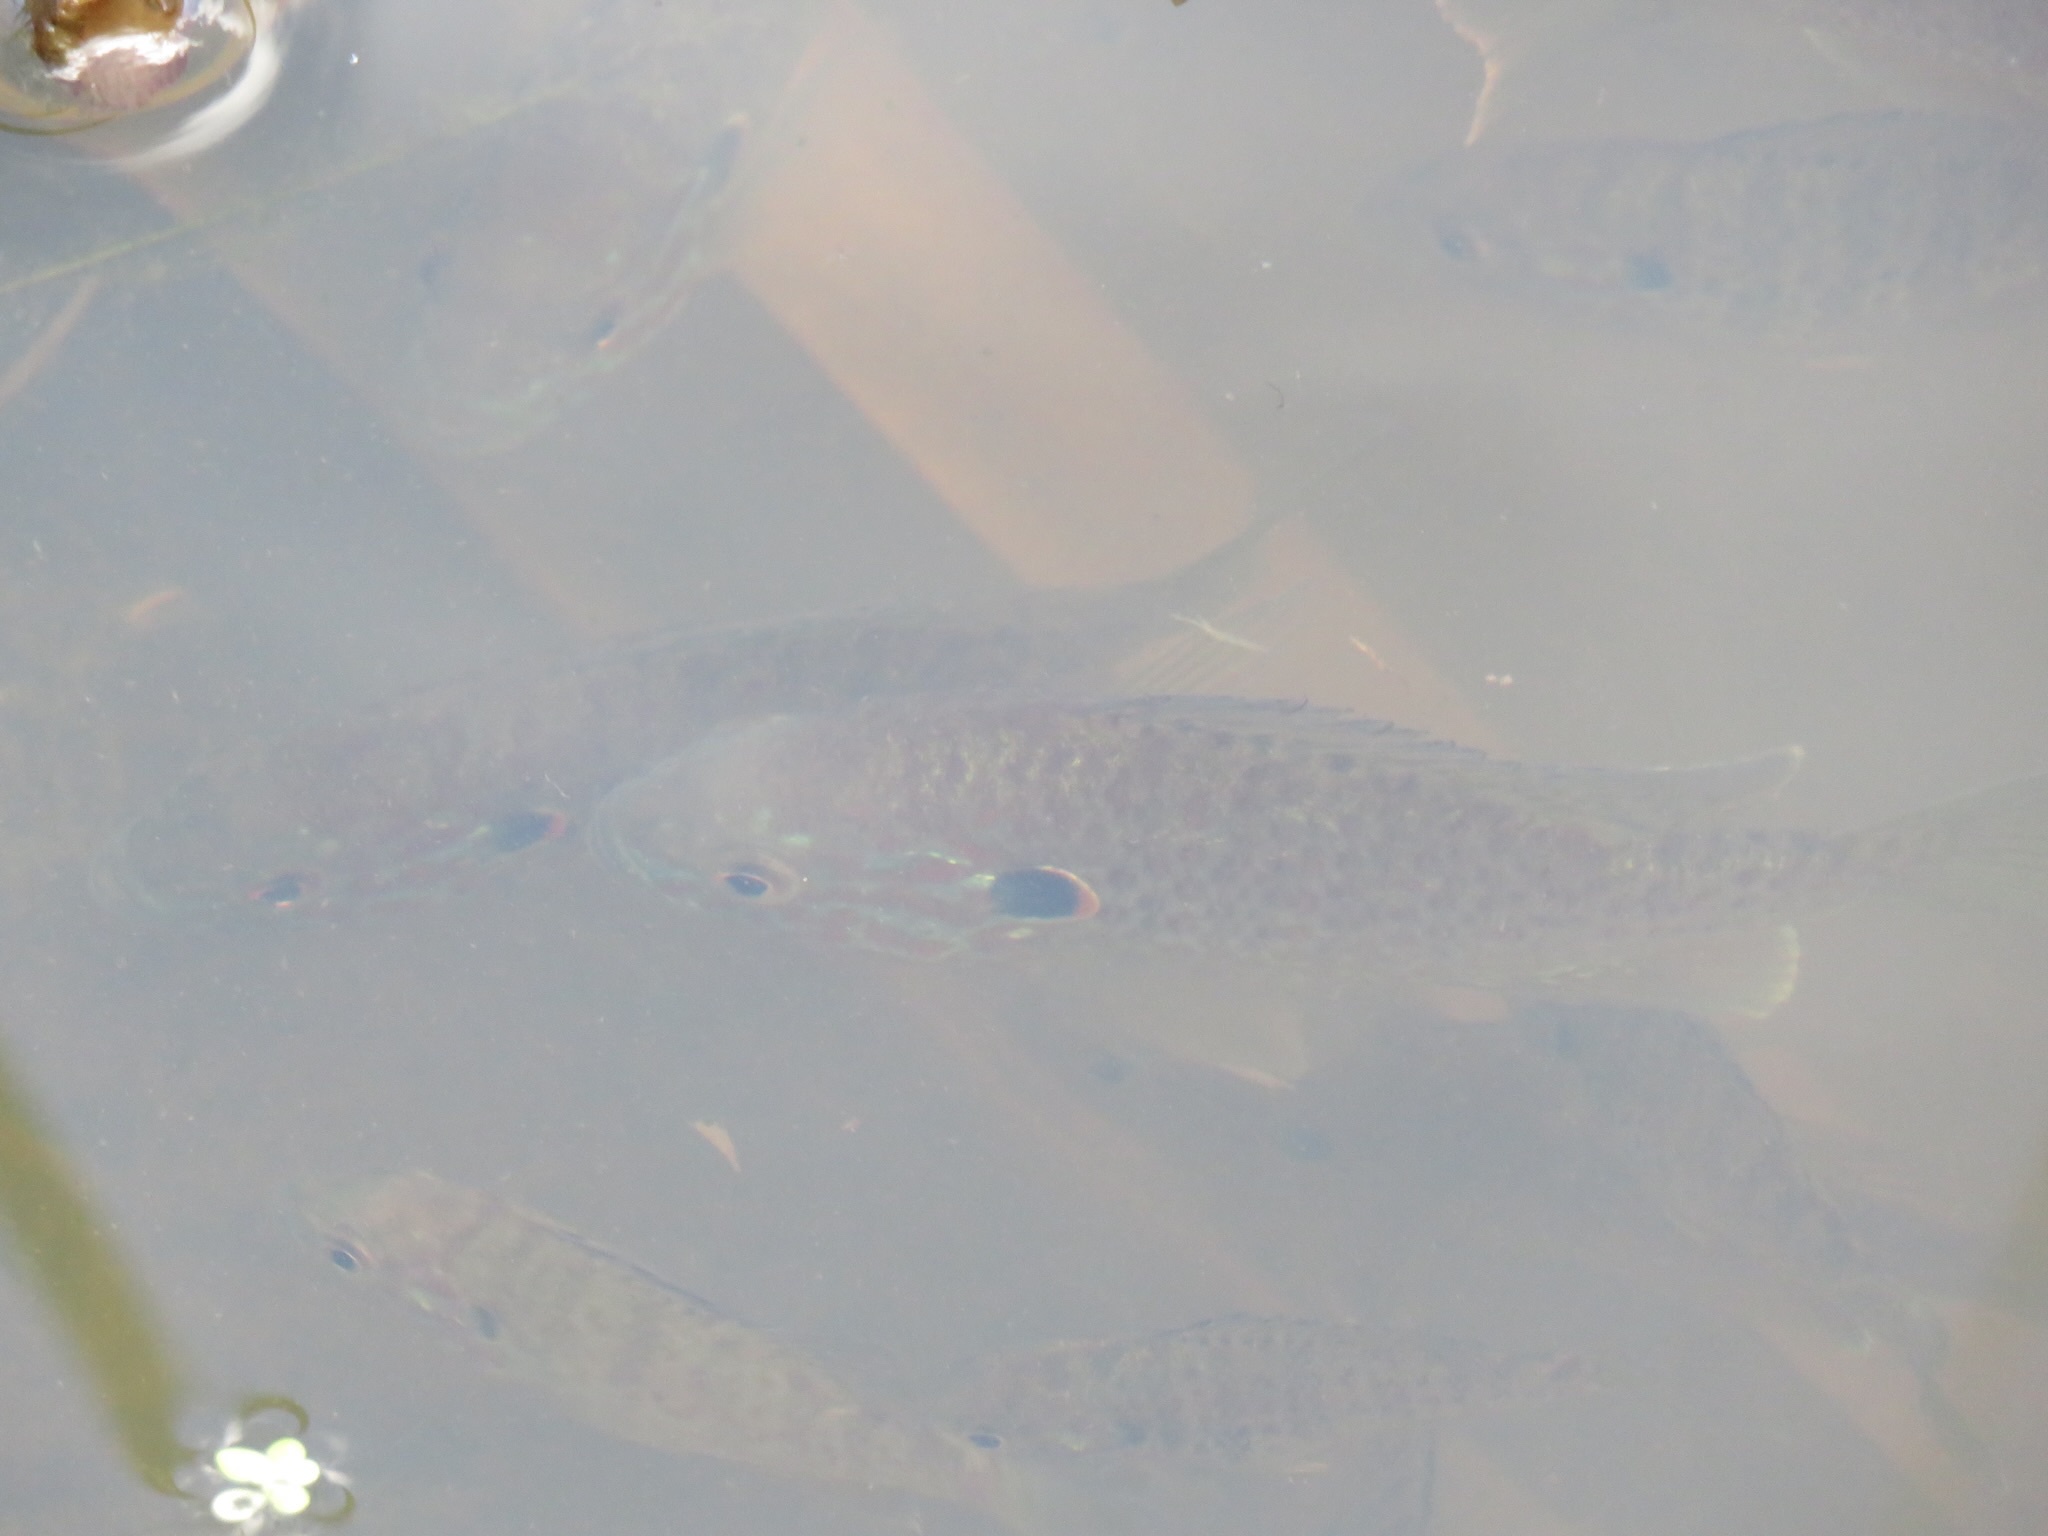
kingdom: Animalia
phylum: Chordata
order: Perciformes
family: Centrarchidae
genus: Lepomis
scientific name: Lepomis gibbosus
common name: Pumpkinseed
